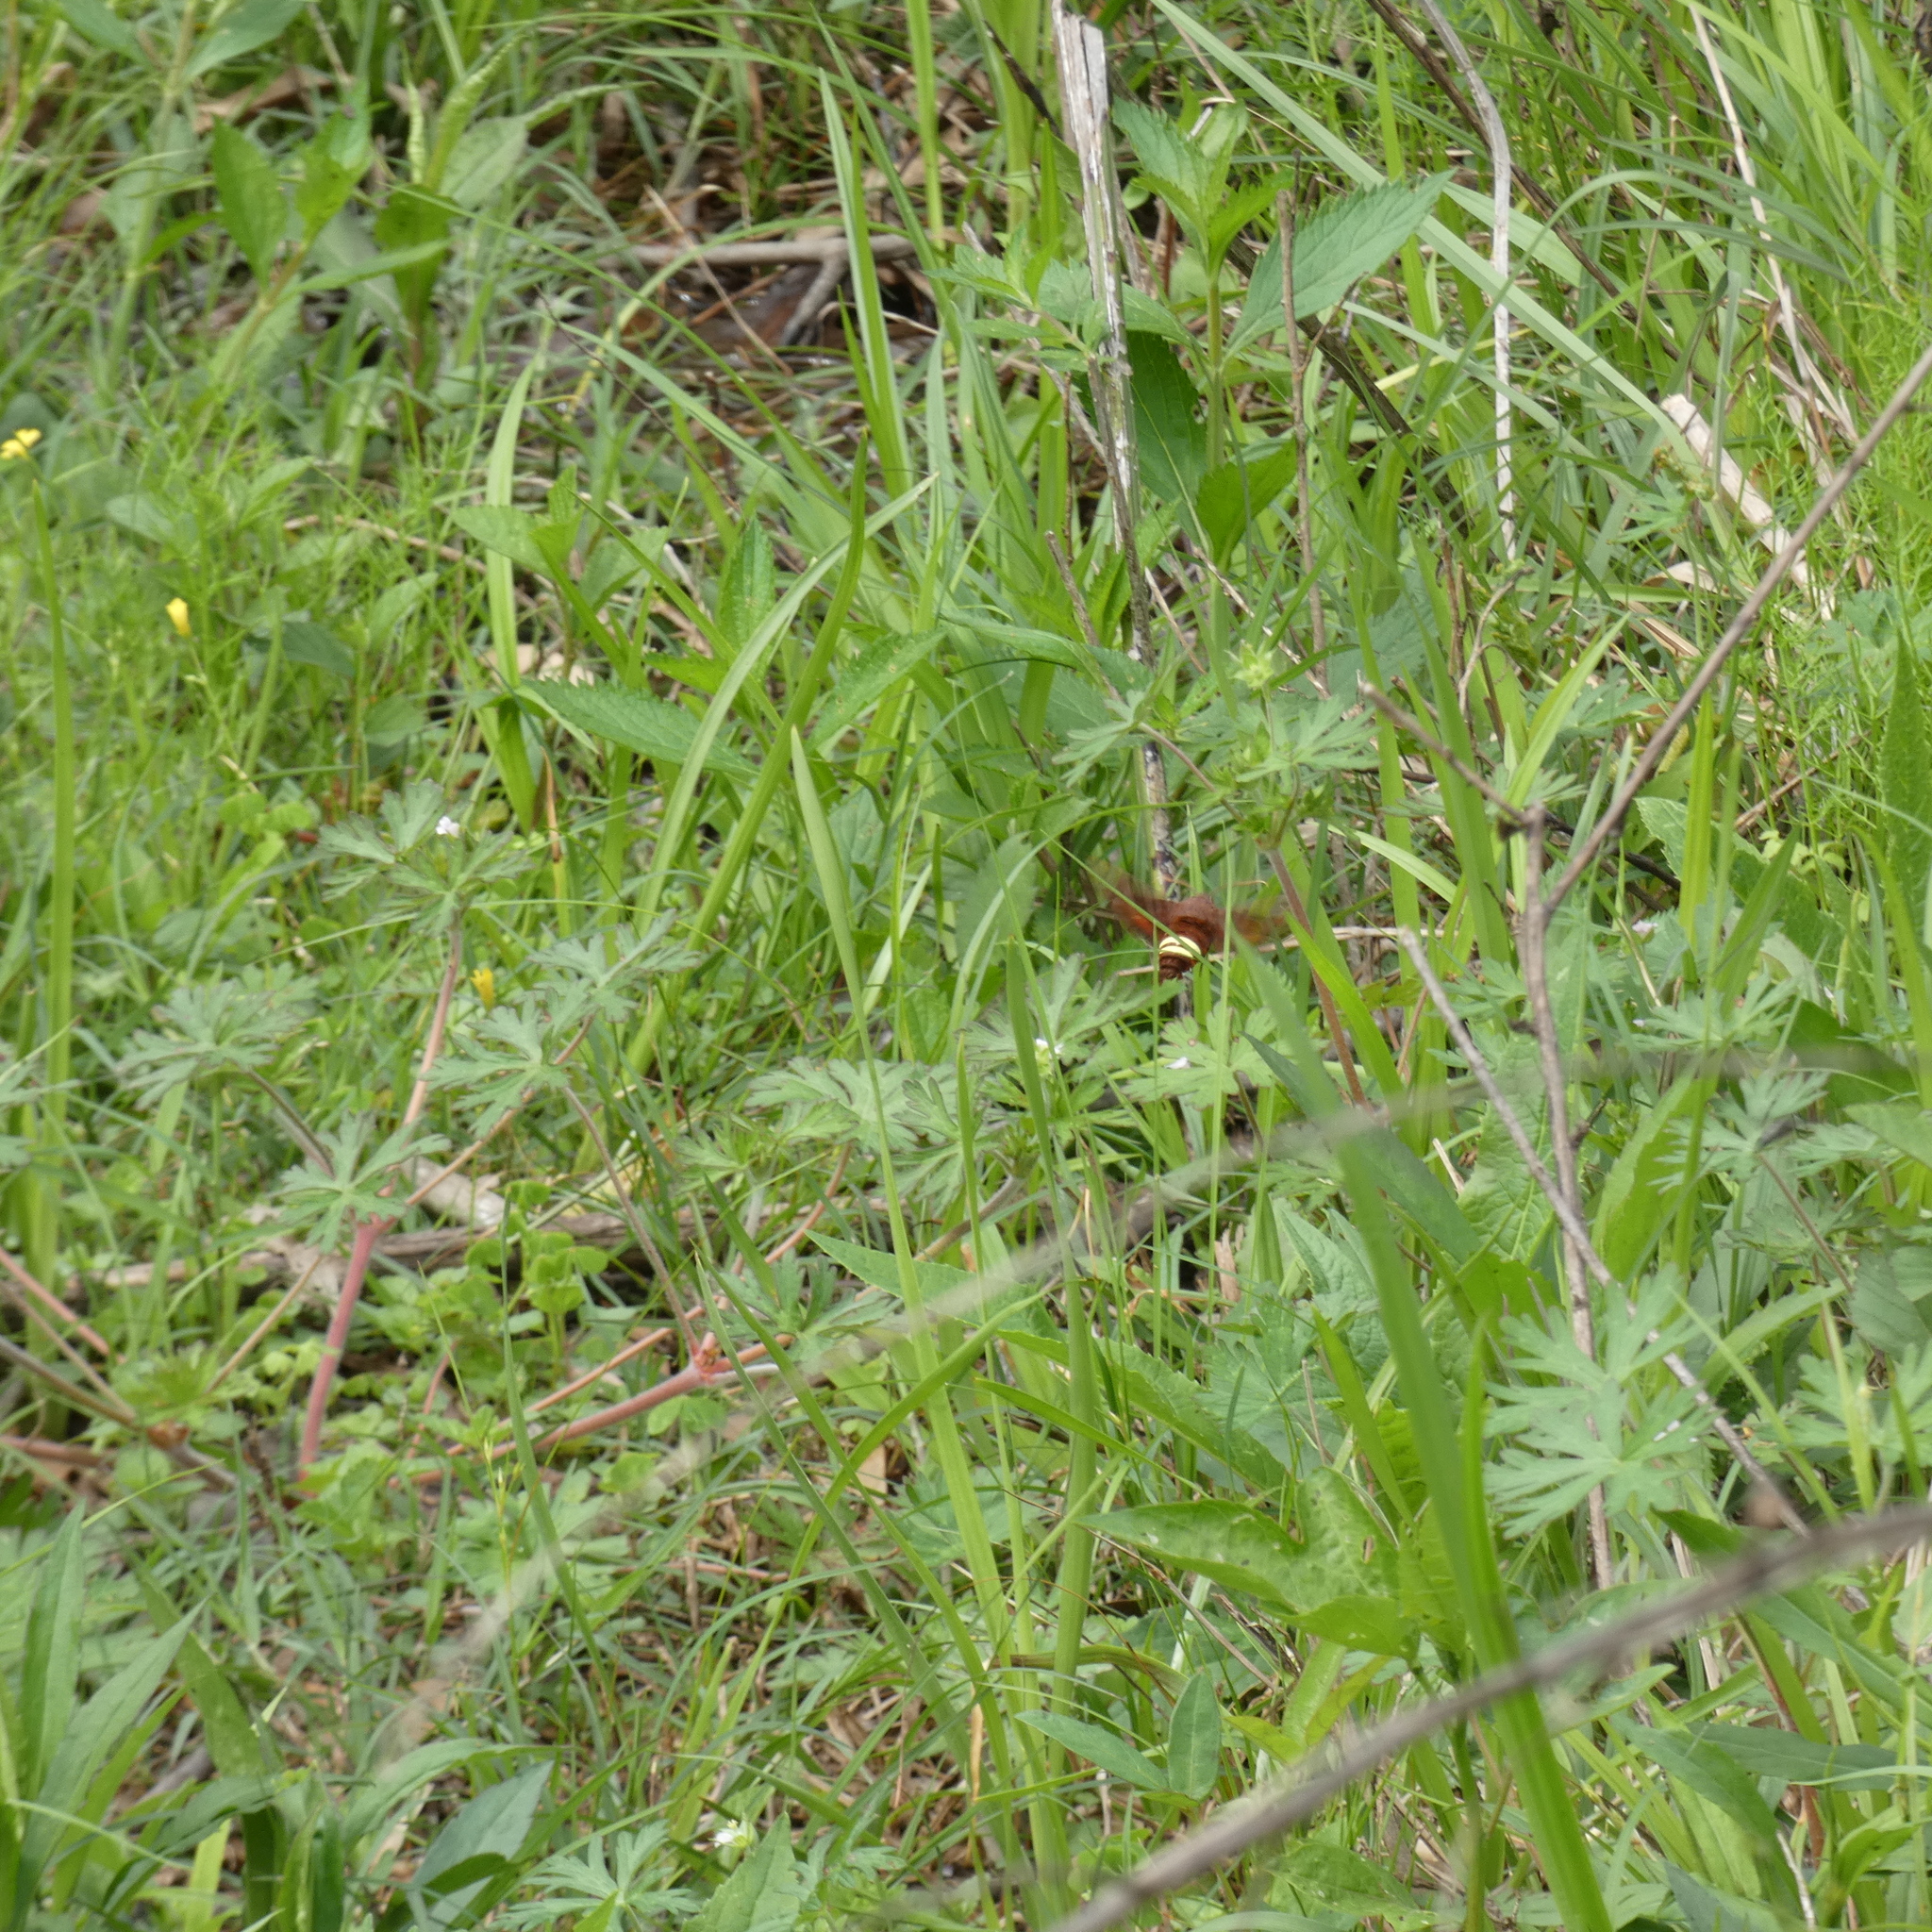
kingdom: Animalia
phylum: Arthropoda
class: Insecta
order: Lepidoptera
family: Sphingidae
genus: Amphion
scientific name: Amphion floridensis
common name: Nessus sphinx
